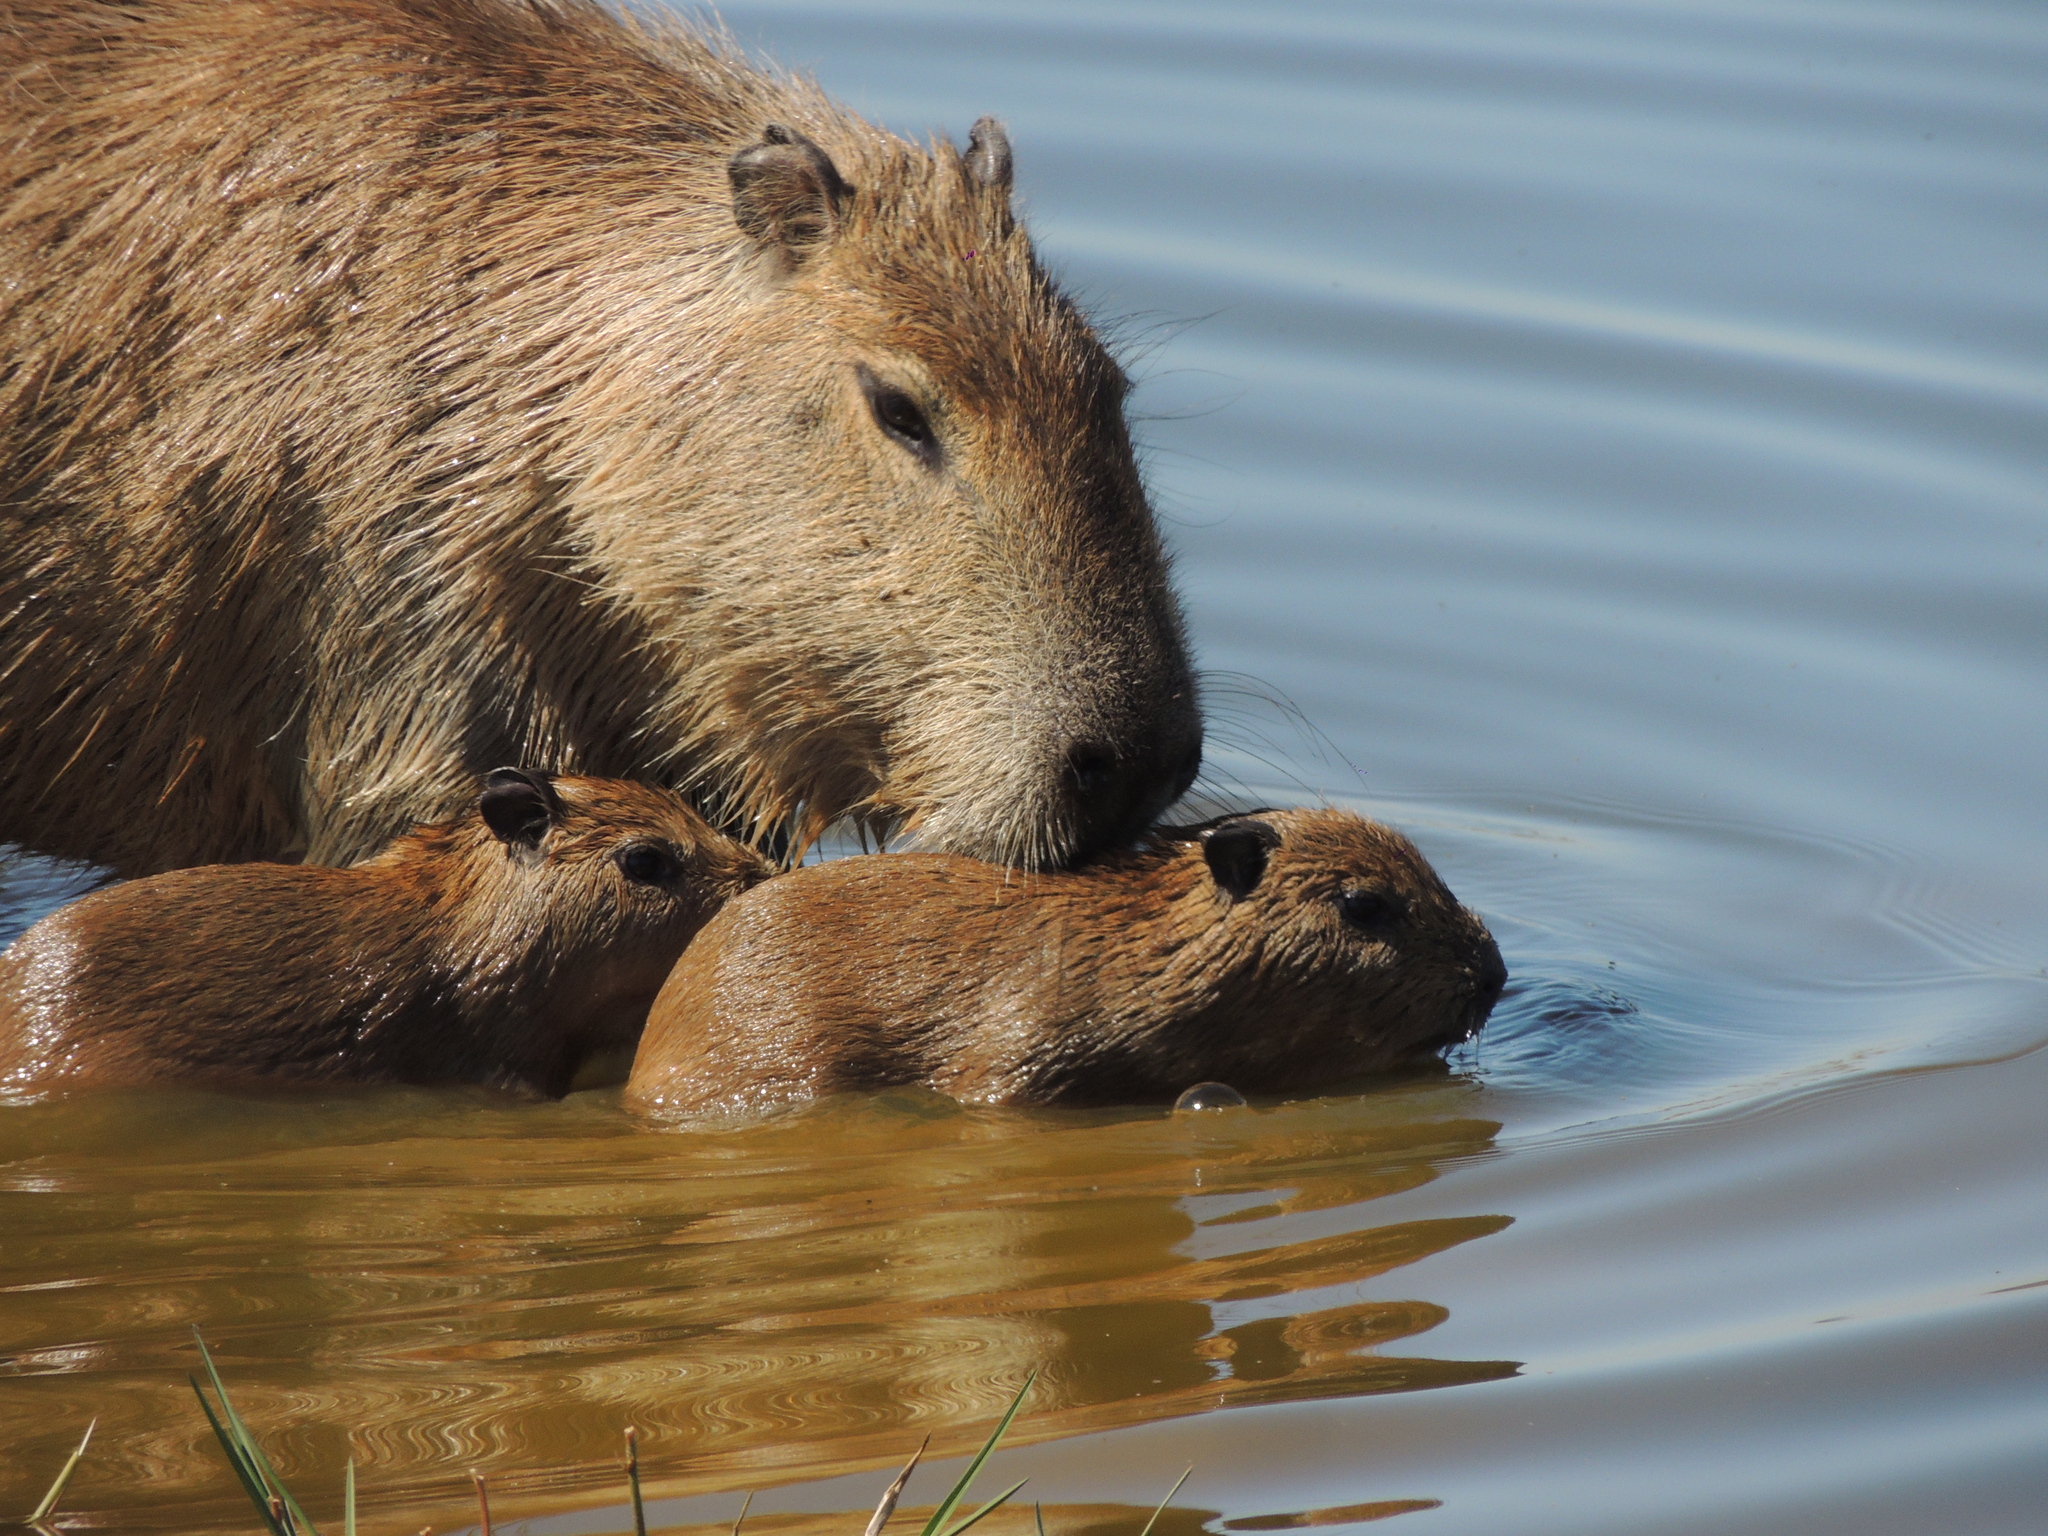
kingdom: Animalia
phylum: Chordata
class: Mammalia
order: Rodentia
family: Caviidae
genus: Hydrochoerus
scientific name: Hydrochoerus hydrochaeris
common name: Capybara
